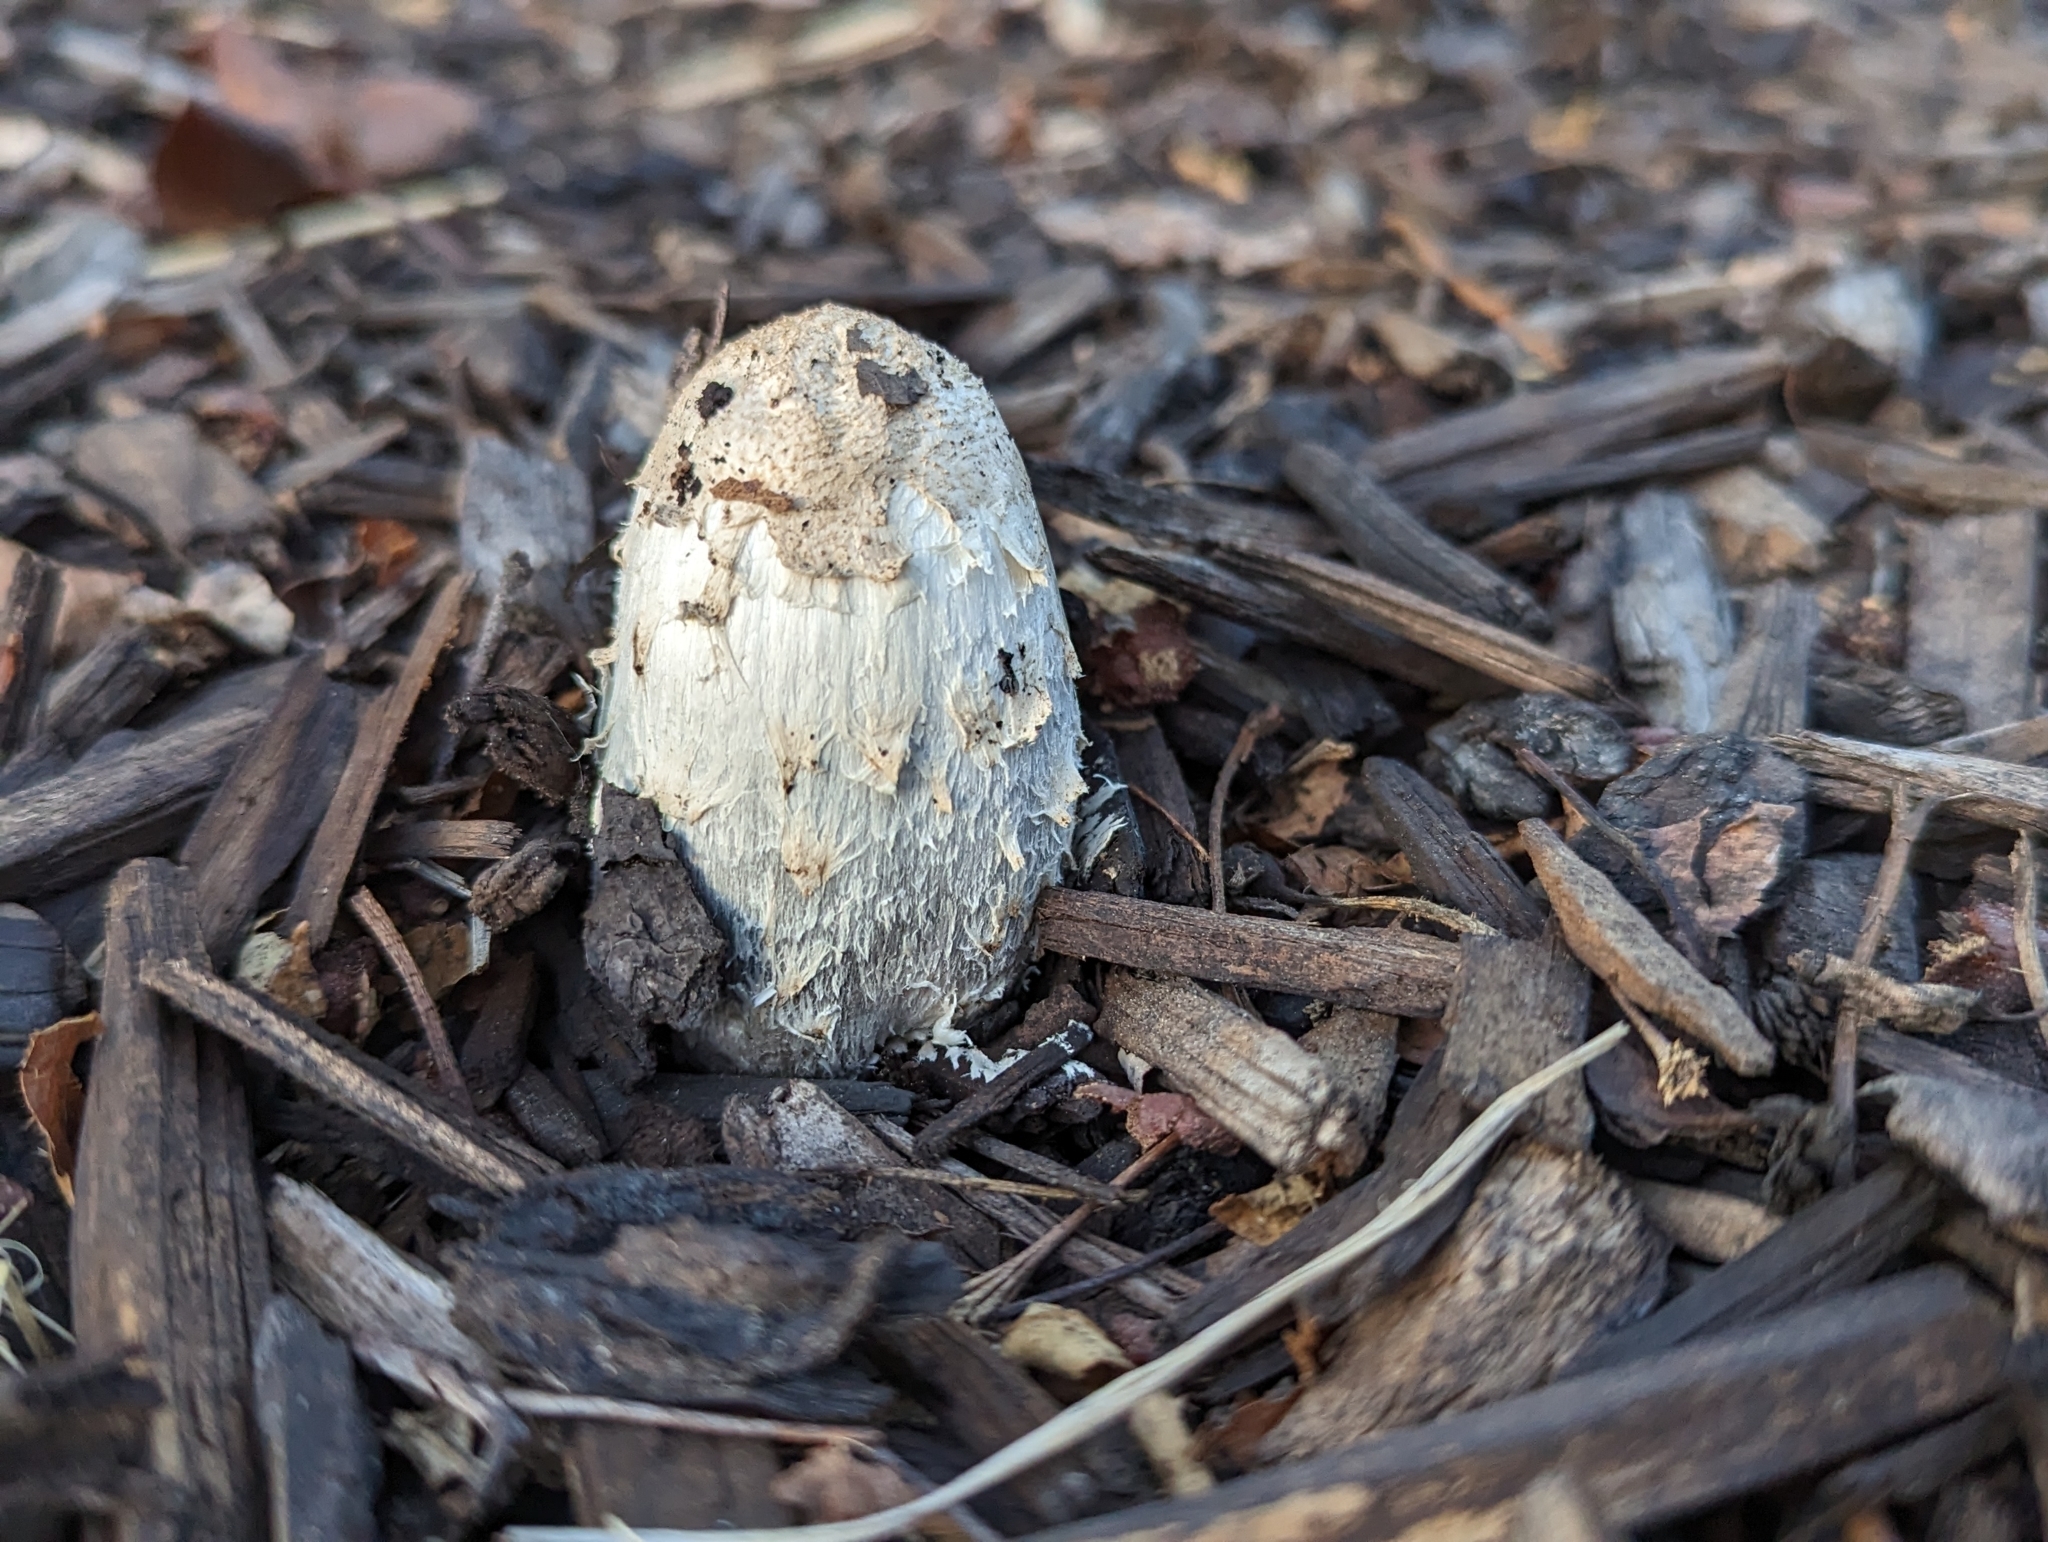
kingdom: Fungi
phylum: Basidiomycota
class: Agaricomycetes
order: Agaricales
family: Agaricaceae
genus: Coprinus
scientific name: Coprinus comatus
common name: Lawyer's wig
